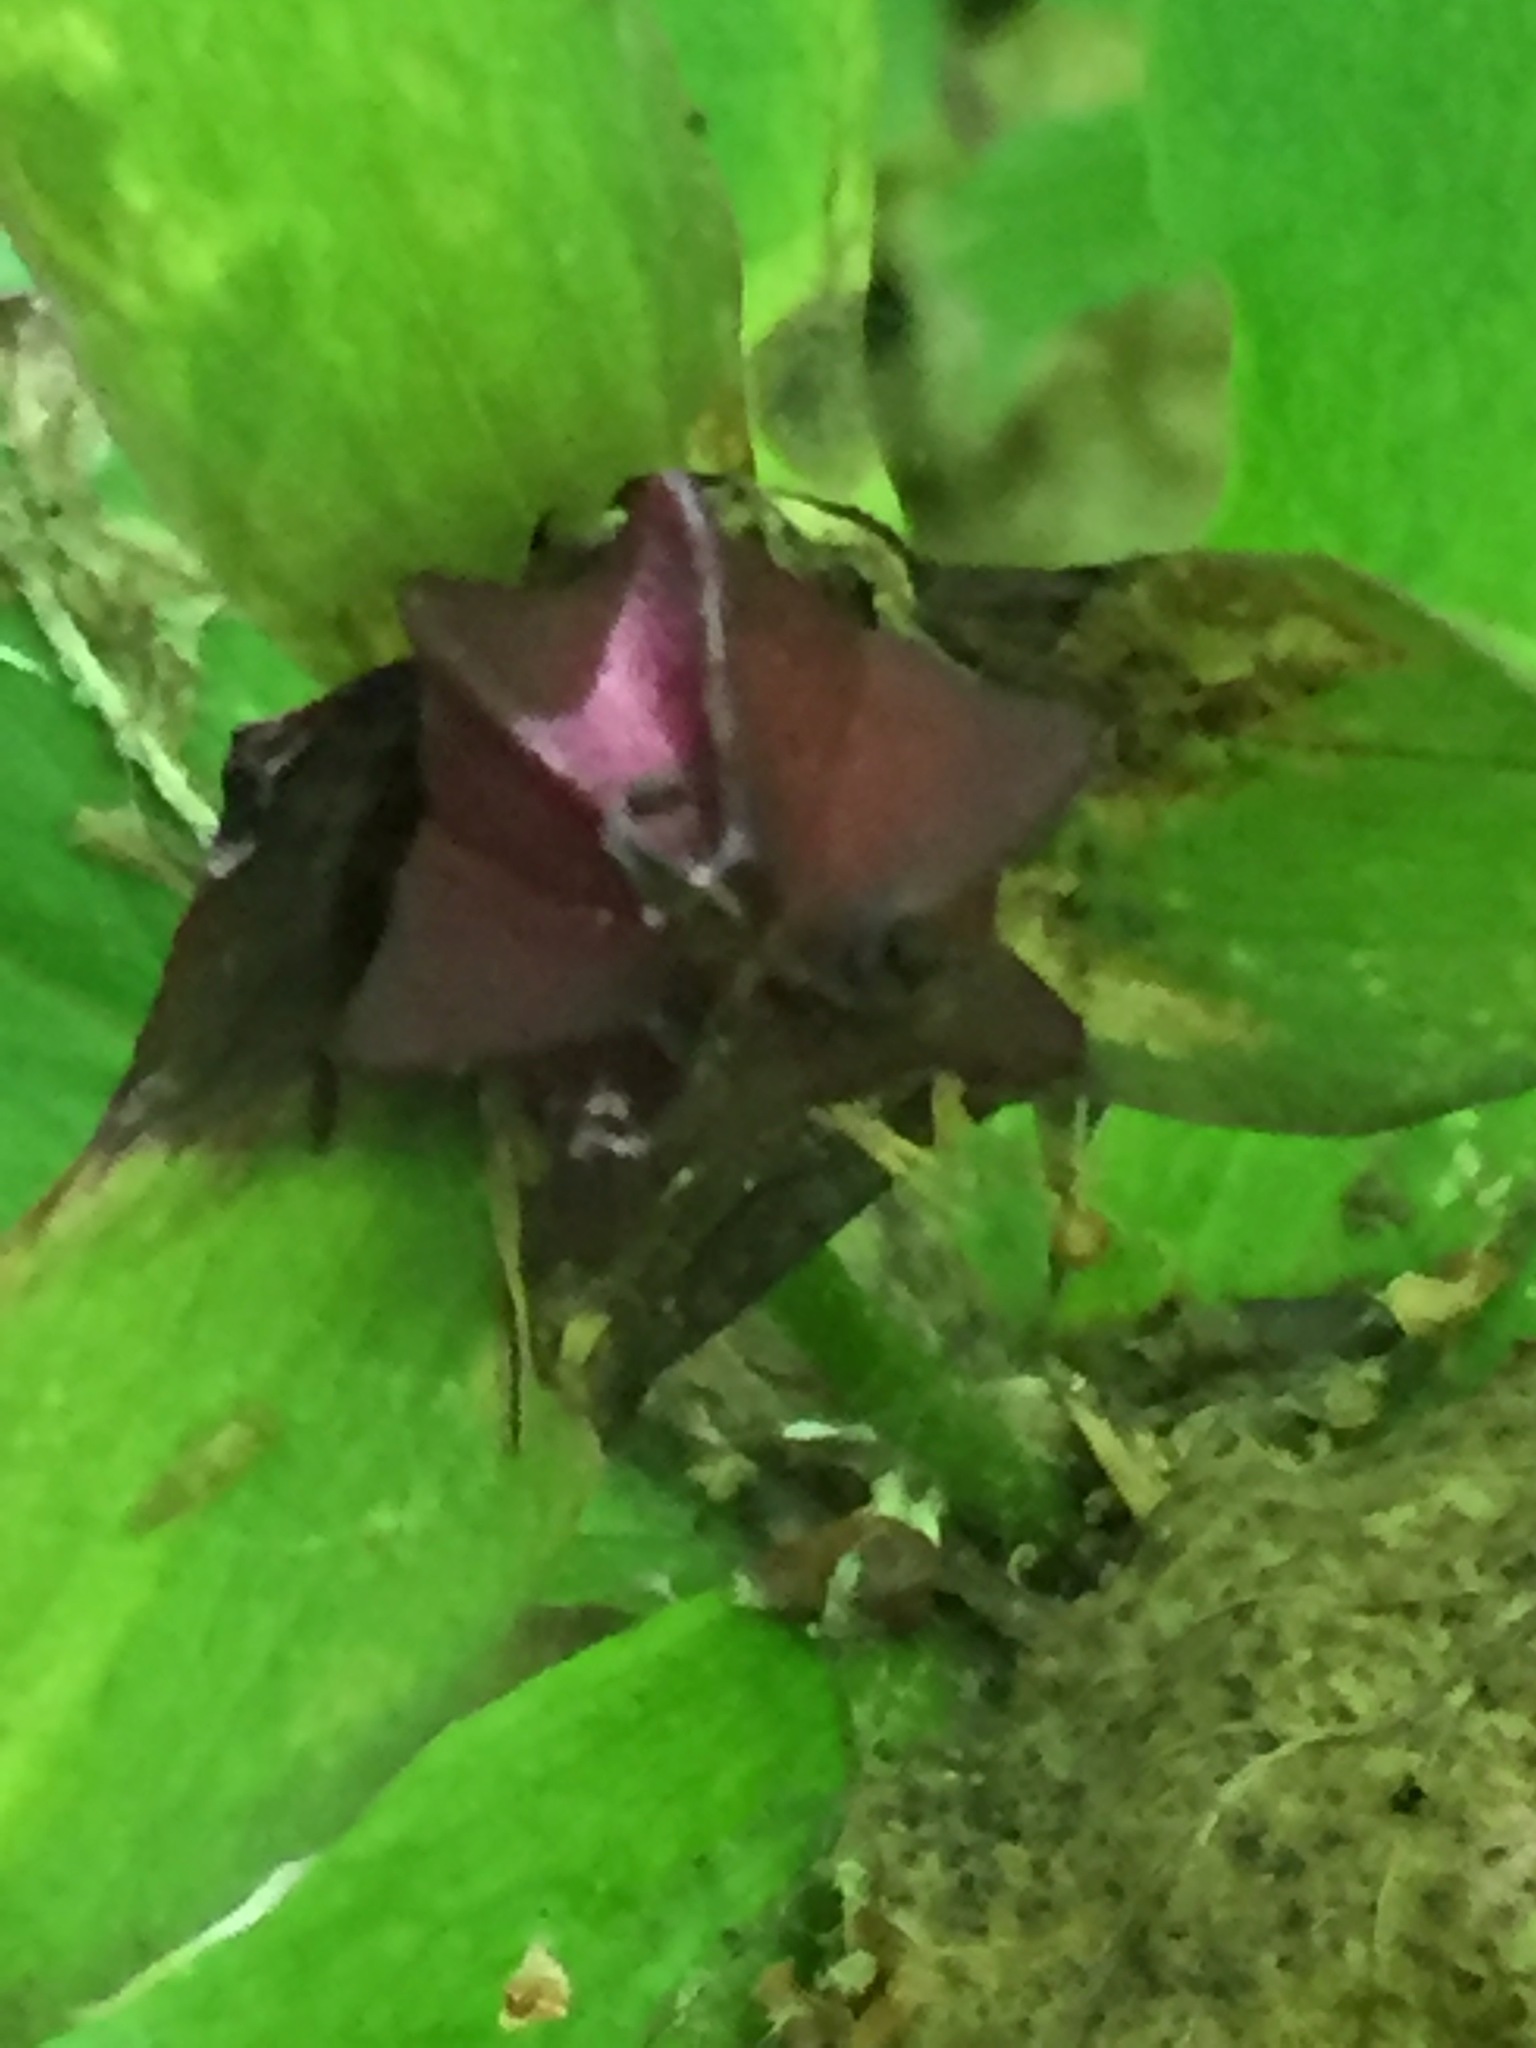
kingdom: Plantae
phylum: Tracheophyta
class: Liliopsida
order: Liliales
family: Melanthiaceae
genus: Trillium
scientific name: Trillium erectum
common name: Purple trillium
